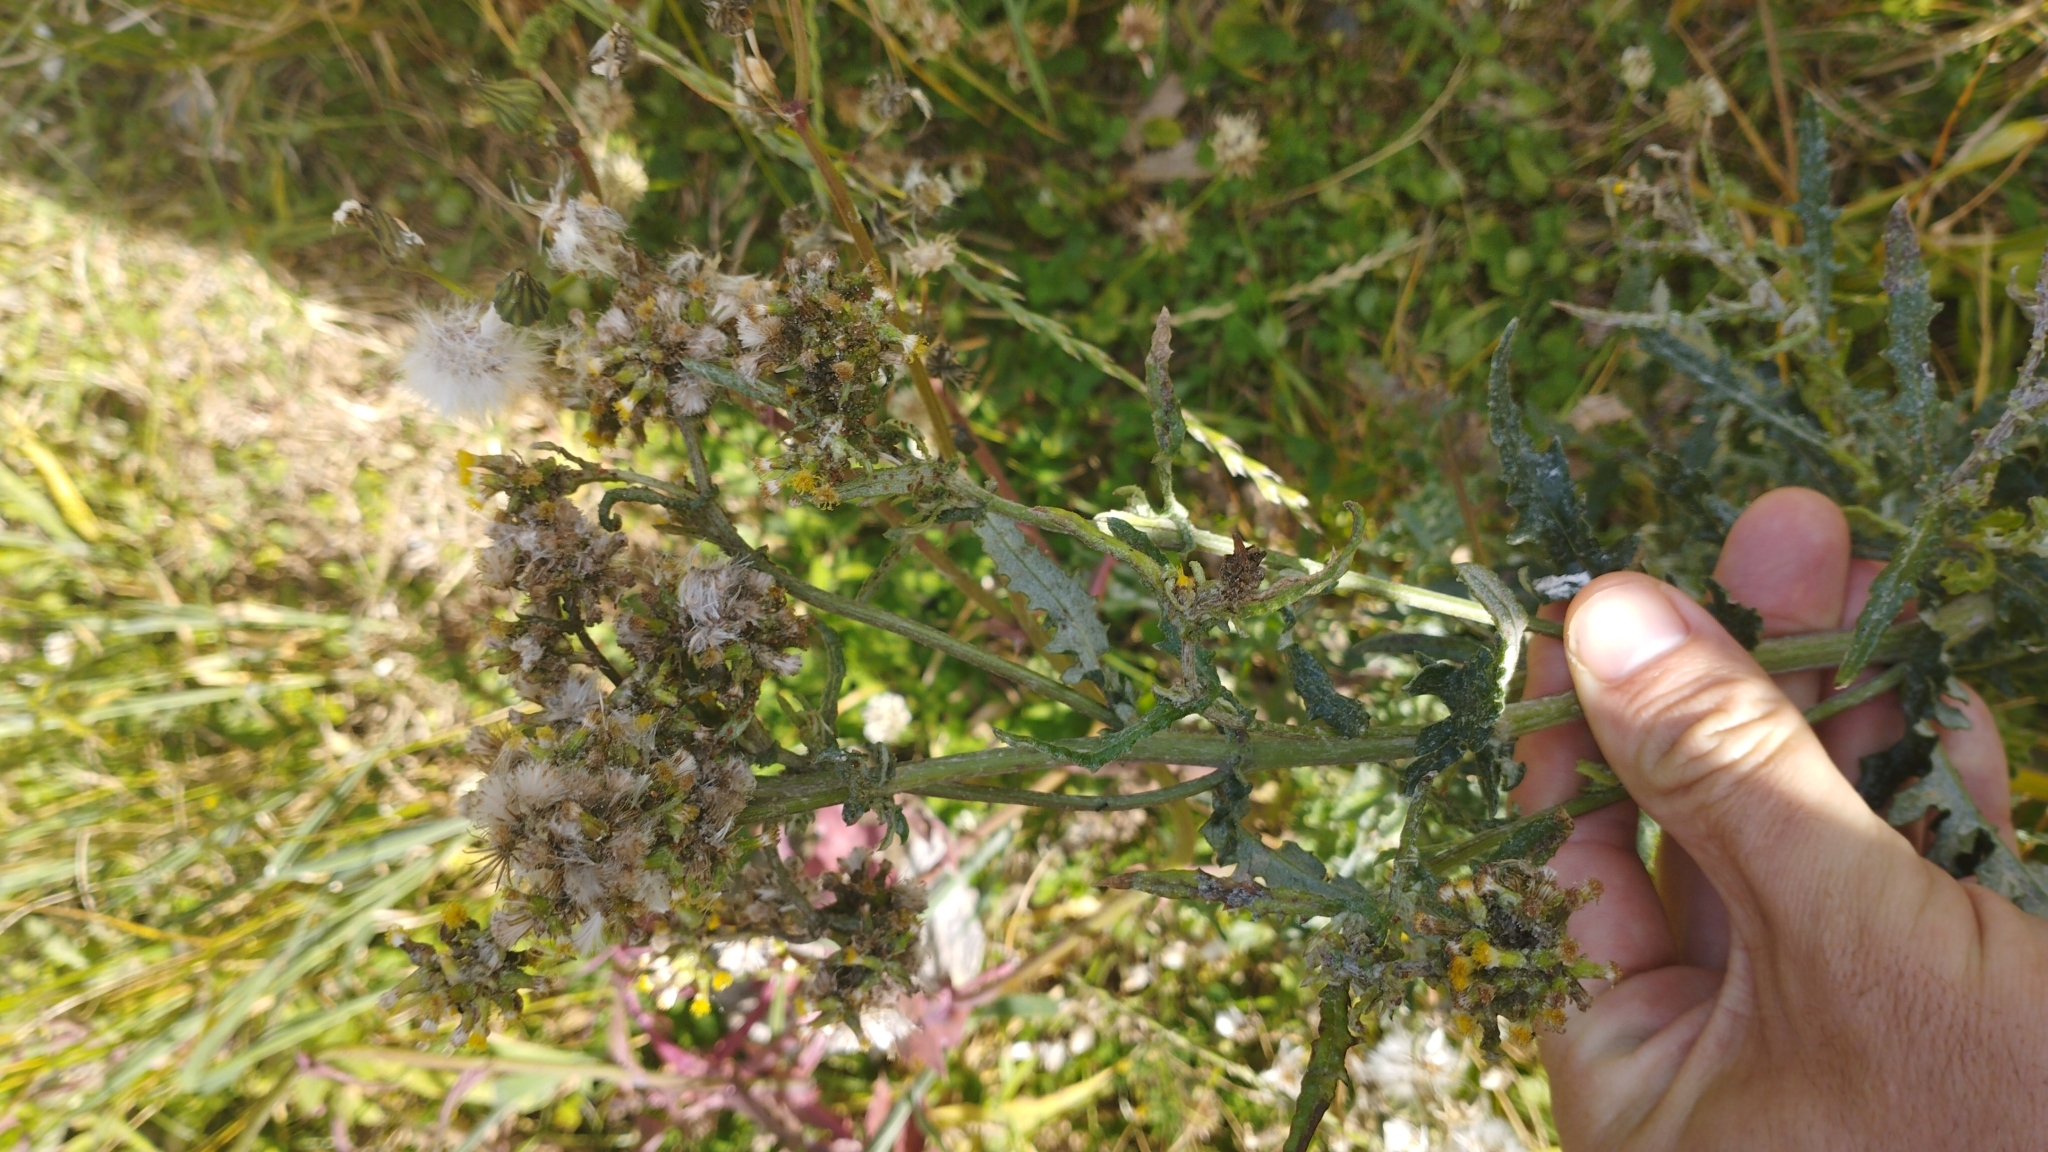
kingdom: Plantae
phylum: Tracheophyta
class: Magnoliopsida
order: Asterales
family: Asteraceae
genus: Senecio
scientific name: Senecio glomeratus
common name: Cutleaf burnweed
